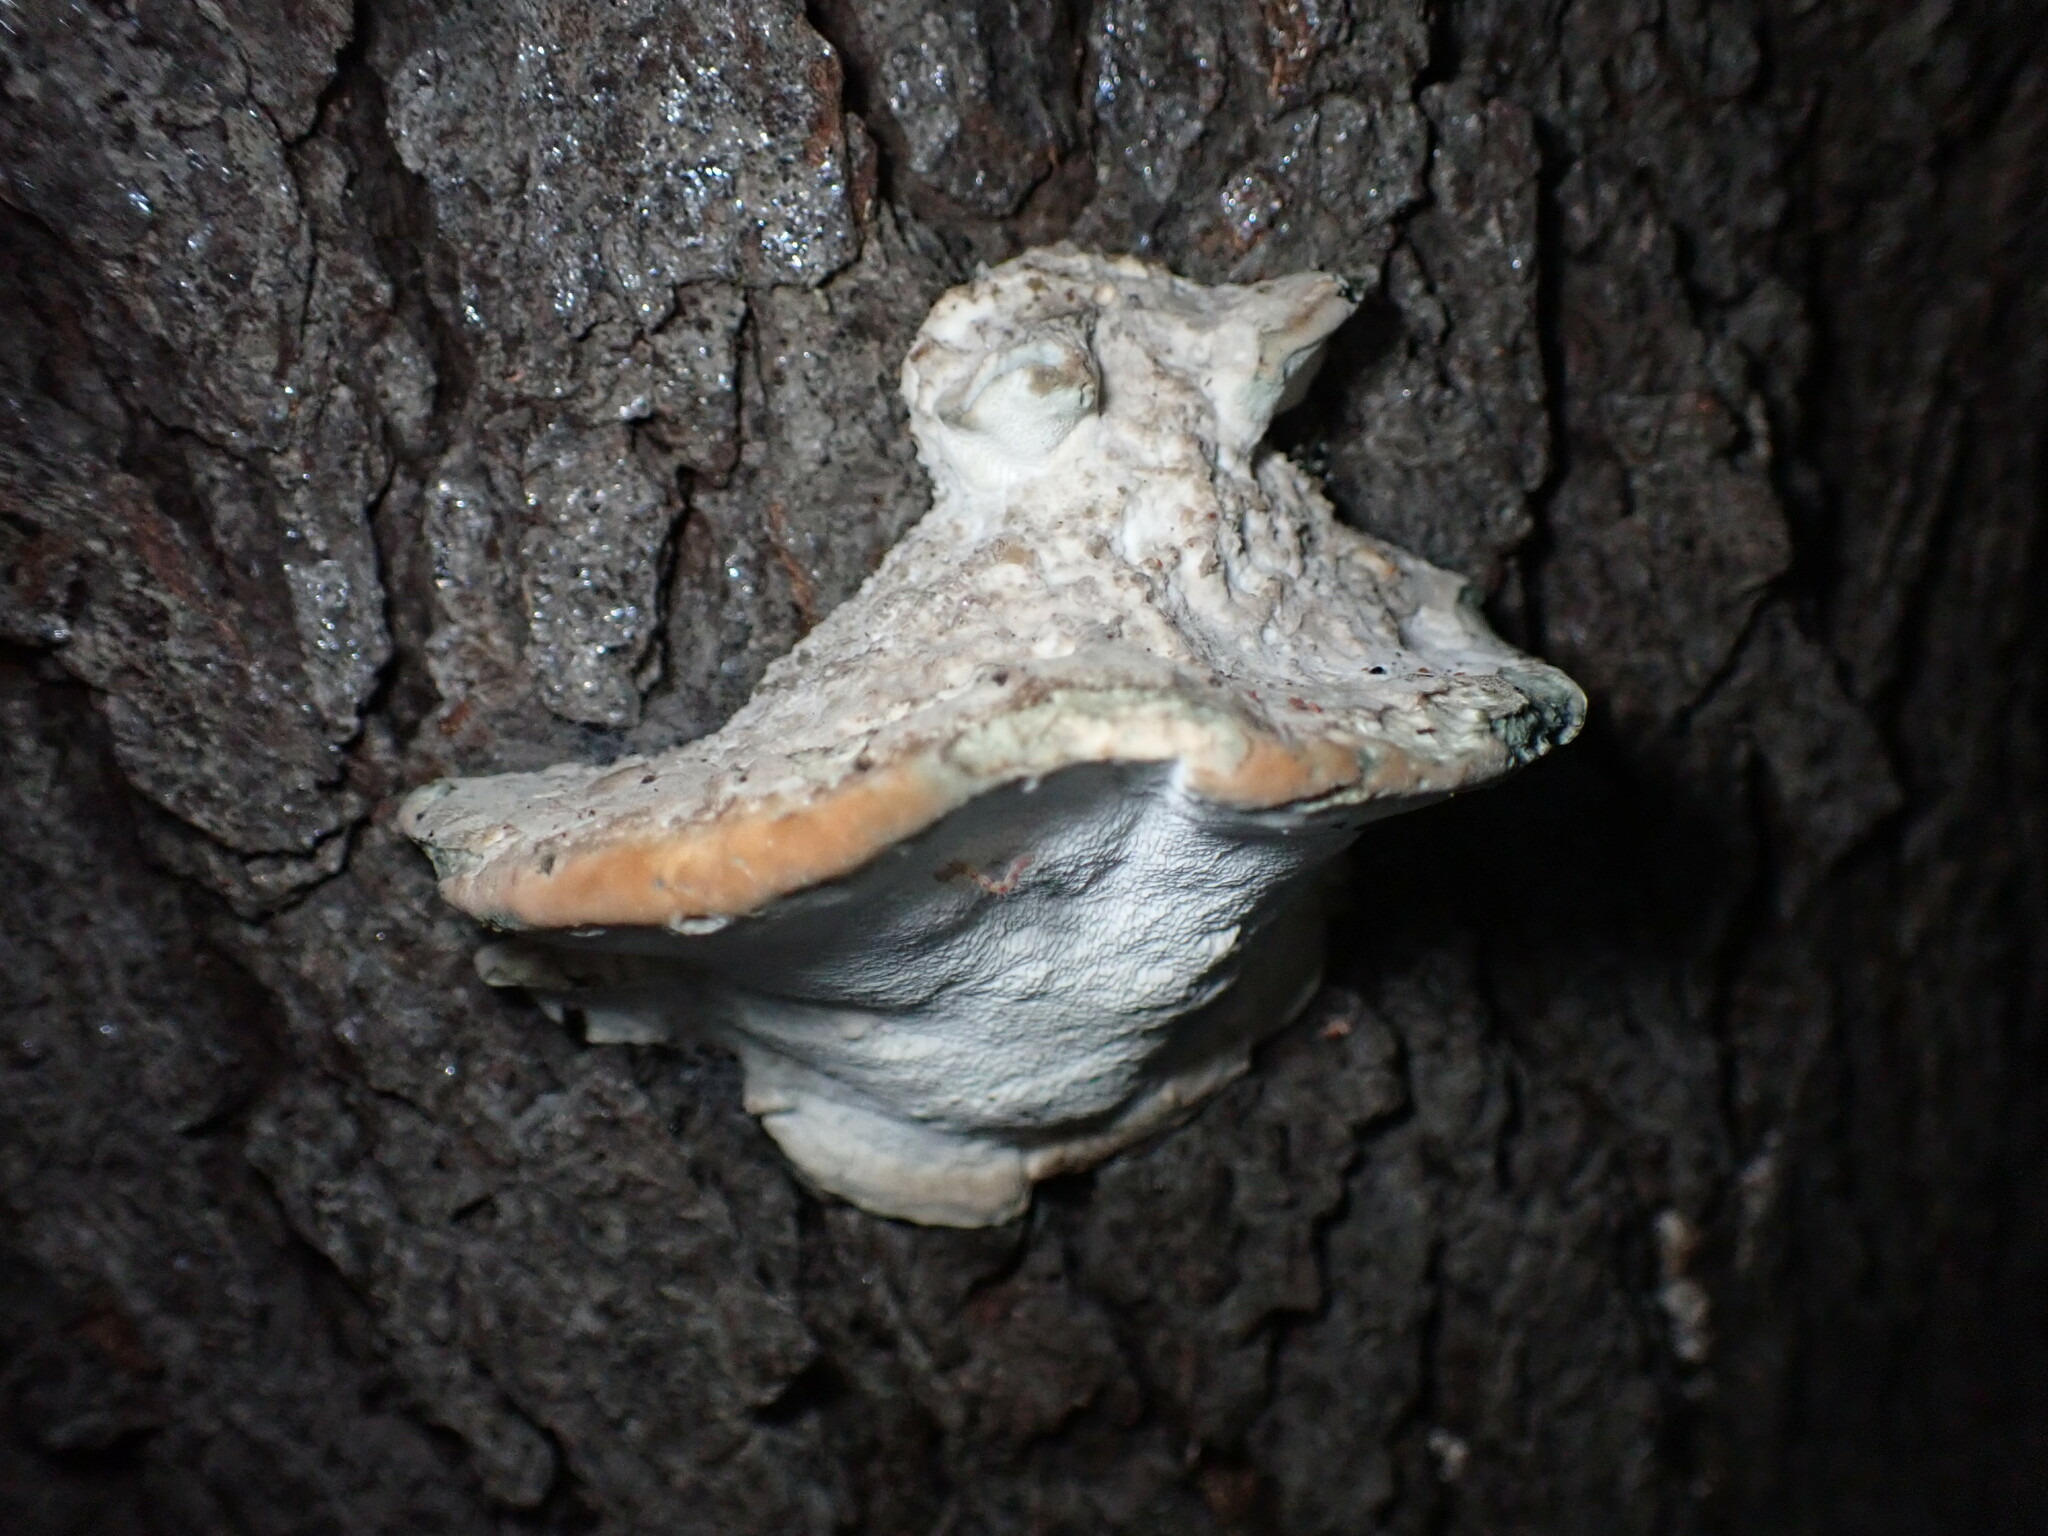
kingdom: Fungi
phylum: Basidiomycota
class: Agaricomycetes
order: Polyporales
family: Fomitopsidaceae
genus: Niveoporofomes
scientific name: Niveoporofomes spraguei
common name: Green cheese polypore
